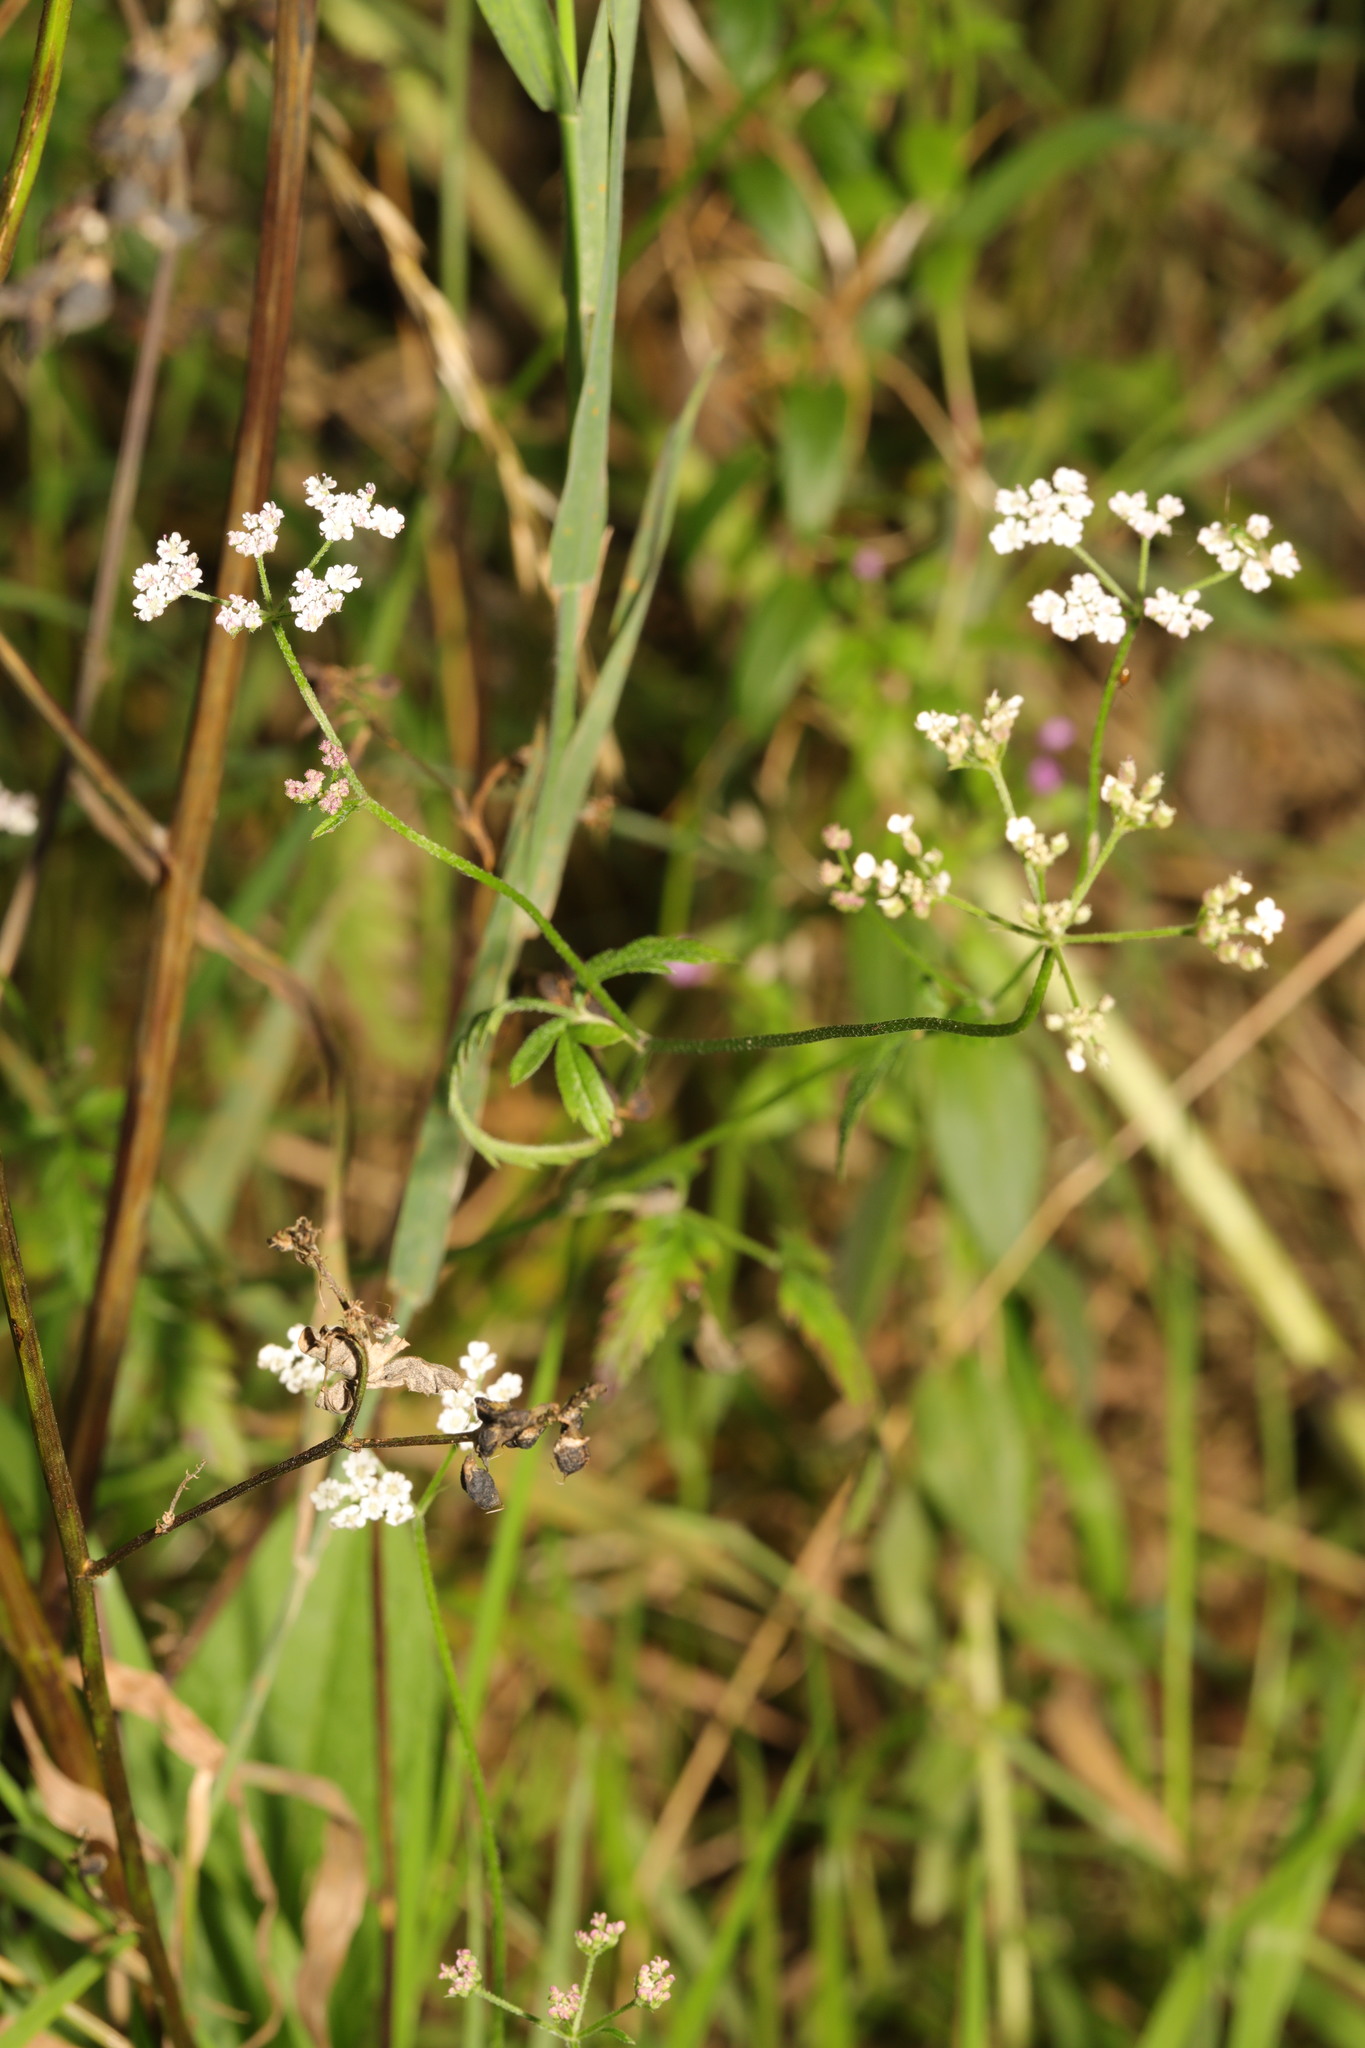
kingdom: Plantae
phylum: Tracheophyta
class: Magnoliopsida
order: Apiales
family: Apiaceae
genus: Torilis
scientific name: Torilis japonica
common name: Upright hedge-parsley
